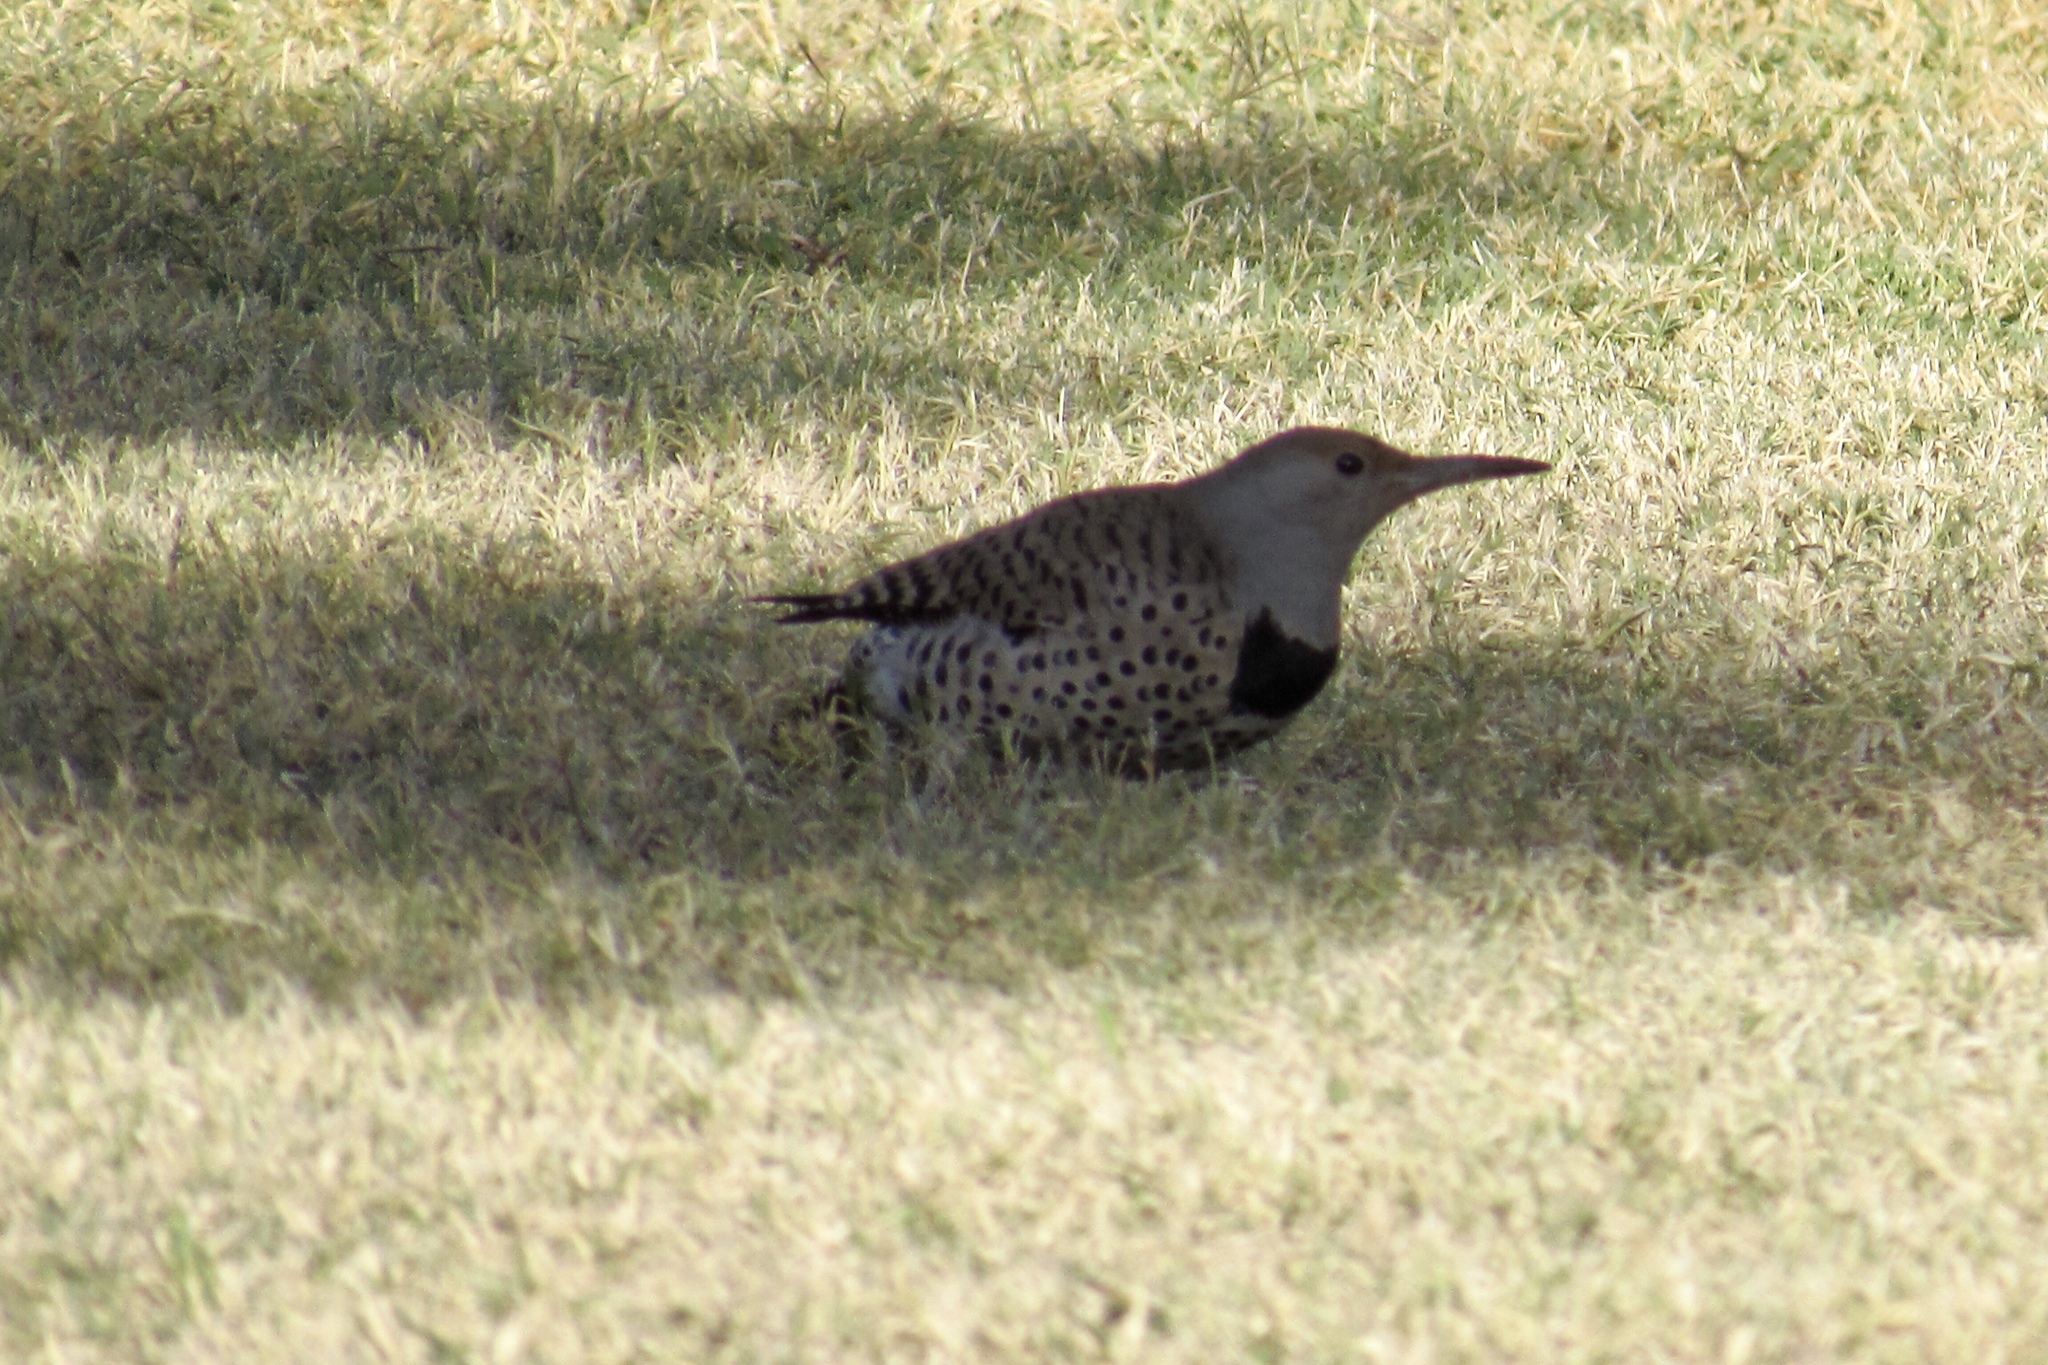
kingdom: Animalia
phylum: Chordata
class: Aves
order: Piciformes
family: Picidae
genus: Colaptes
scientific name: Colaptes auratus
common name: Northern flicker
